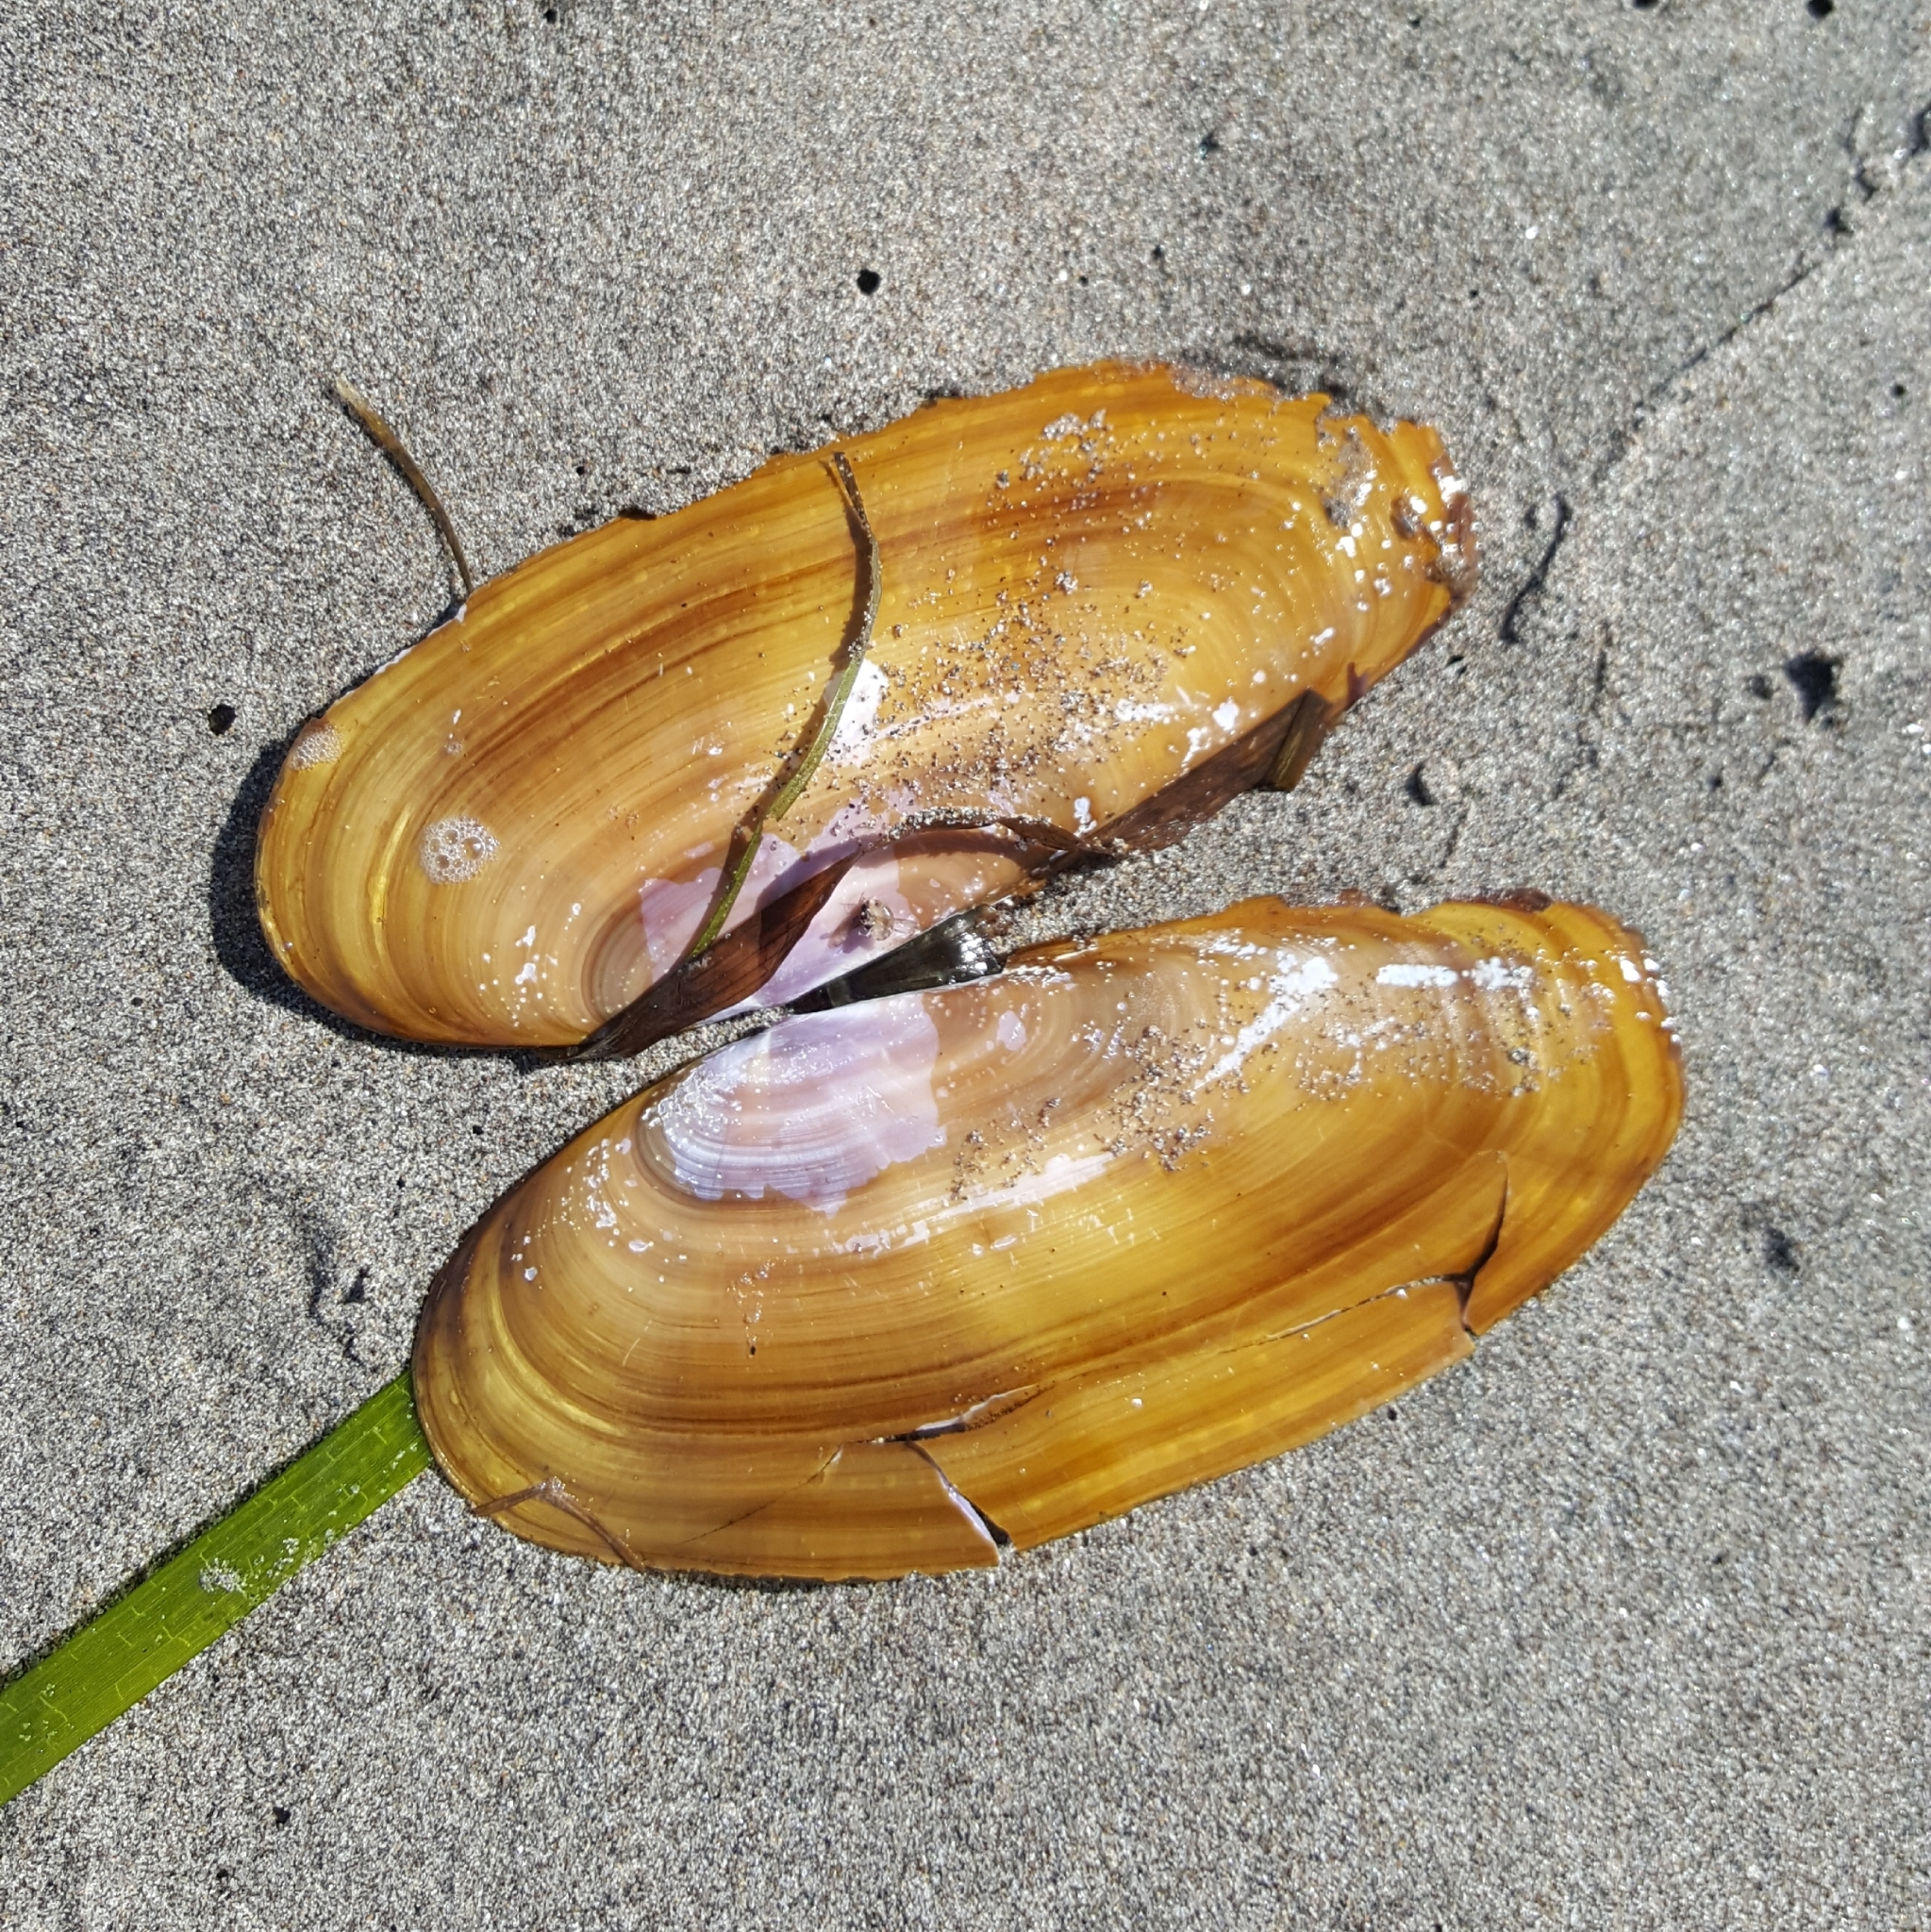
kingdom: Animalia
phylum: Mollusca
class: Bivalvia
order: Adapedonta
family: Pharidae
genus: Siliqua
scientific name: Siliqua patula
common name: Pacific razor clam
